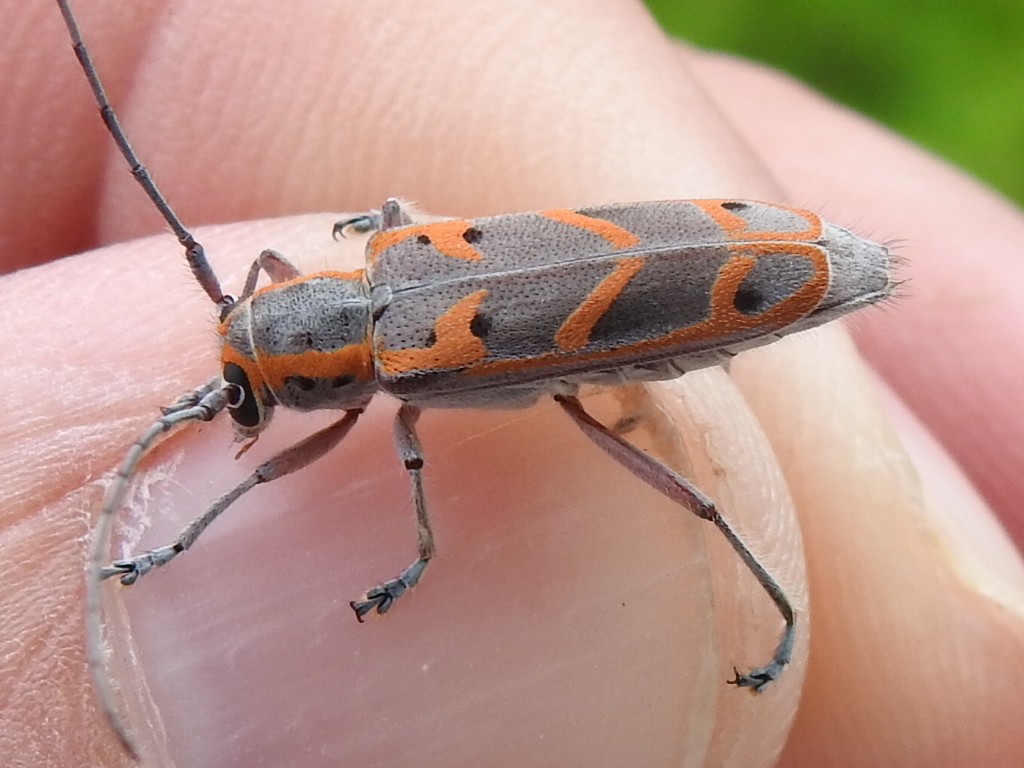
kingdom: Animalia
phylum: Arthropoda
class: Insecta
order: Coleoptera
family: Cerambycidae
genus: Saperda
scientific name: Saperda tridentata
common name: Elm borer
